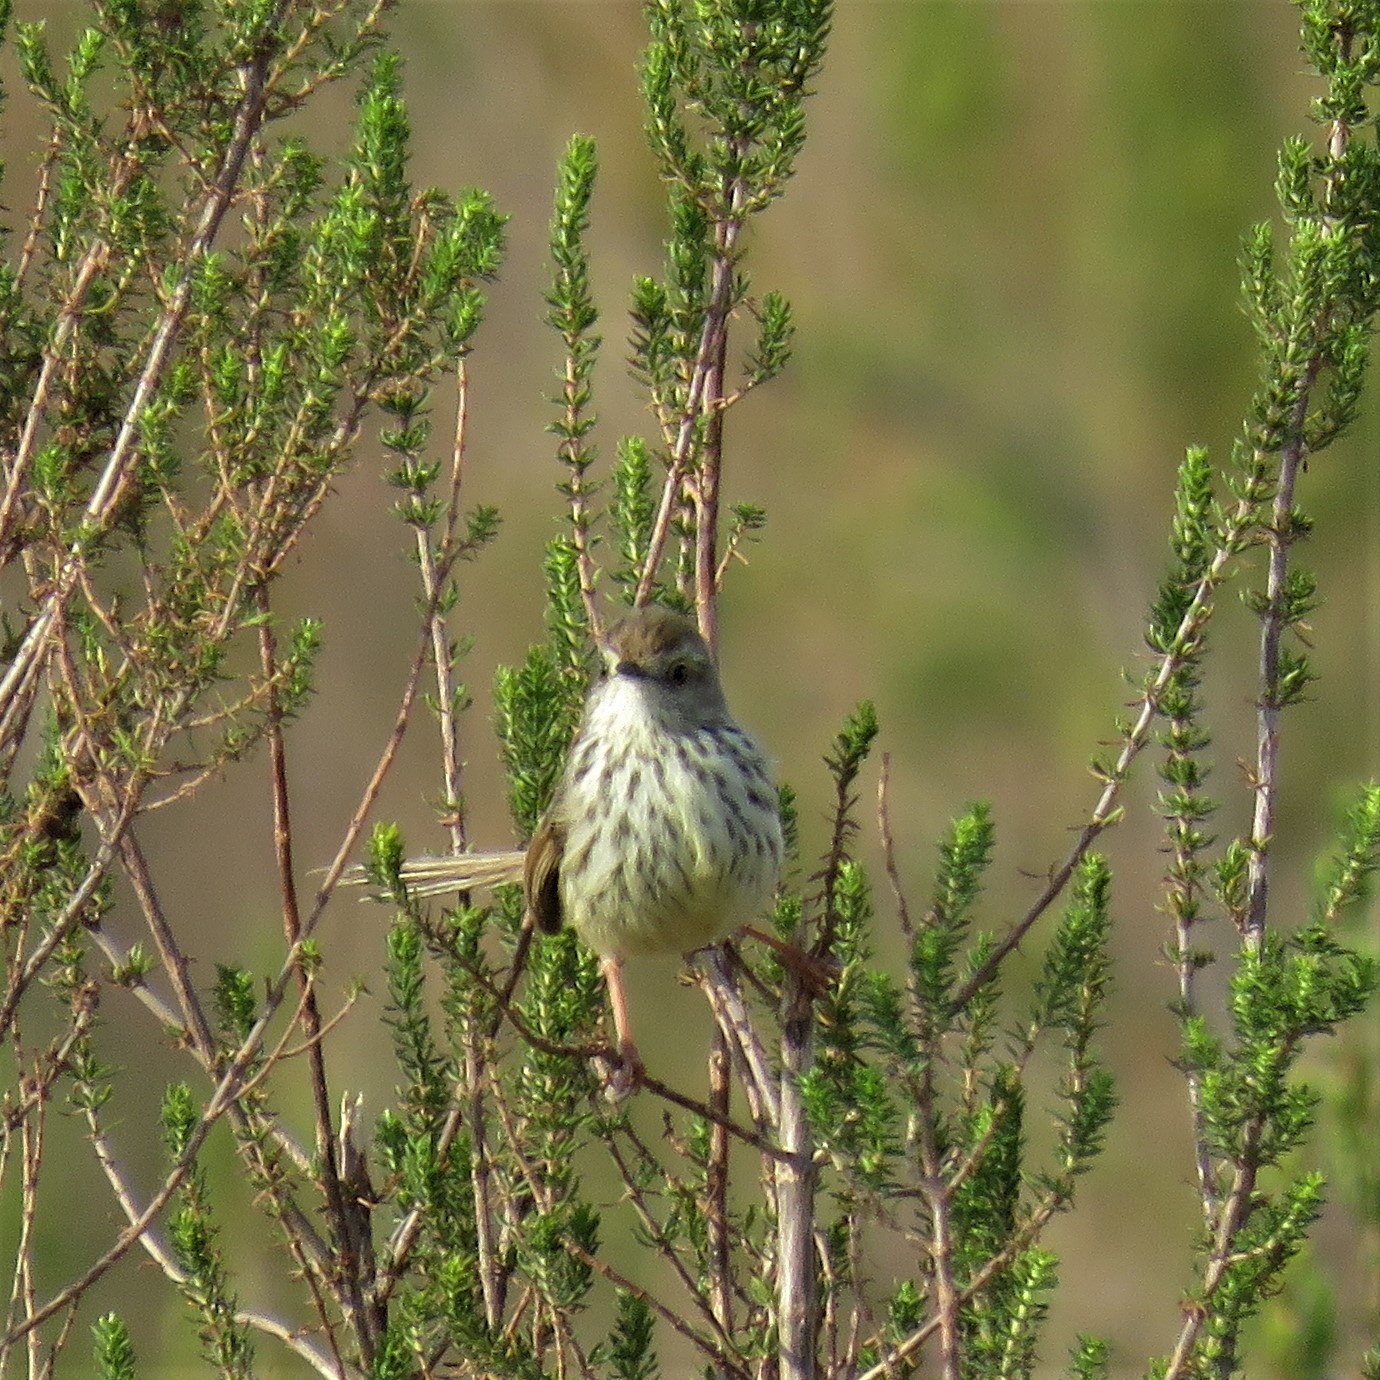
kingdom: Animalia
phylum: Chordata
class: Aves
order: Passeriformes
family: Cisticolidae
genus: Prinia
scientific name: Prinia maculosa
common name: Karoo prinia
